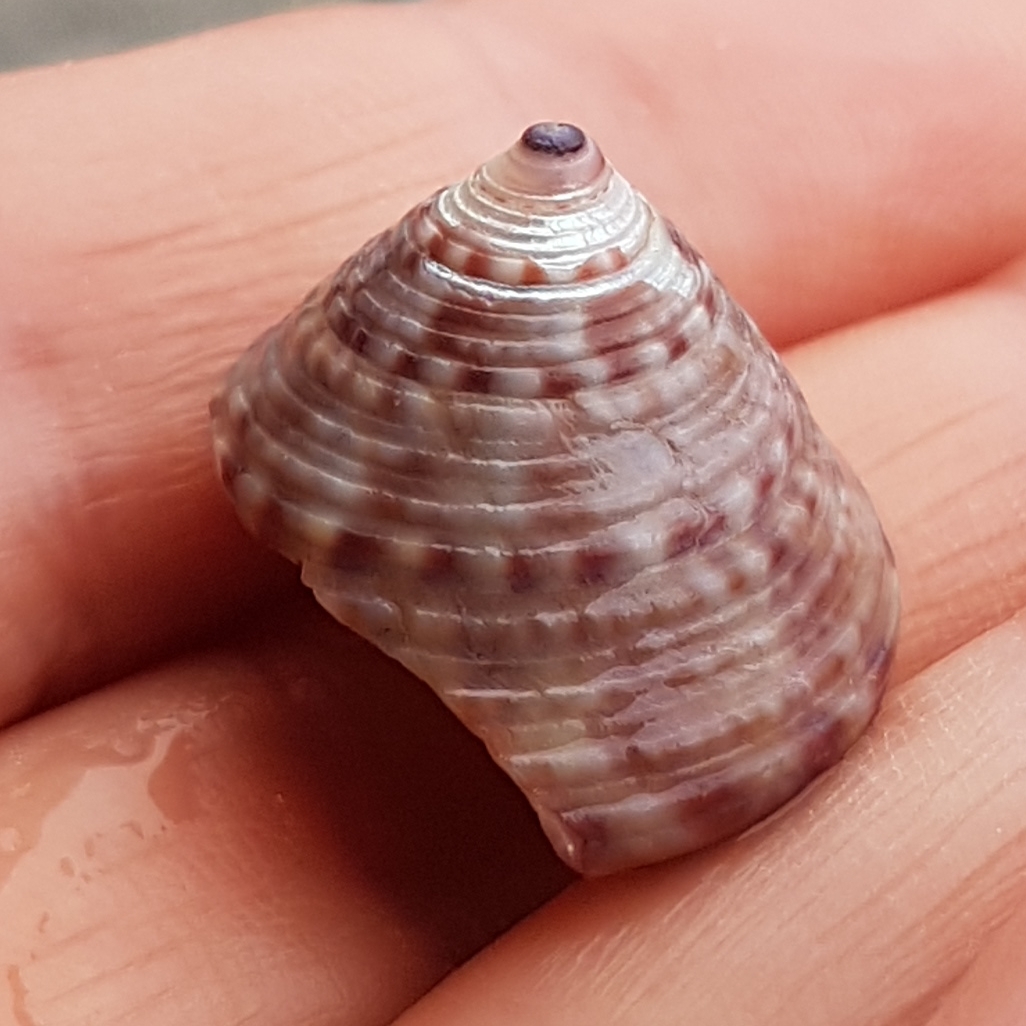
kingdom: Animalia
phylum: Mollusca
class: Gastropoda
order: Trochida
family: Calliostomatidae
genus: Calliostoma
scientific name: Calliostoma zizyphinum
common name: Painted top shell
